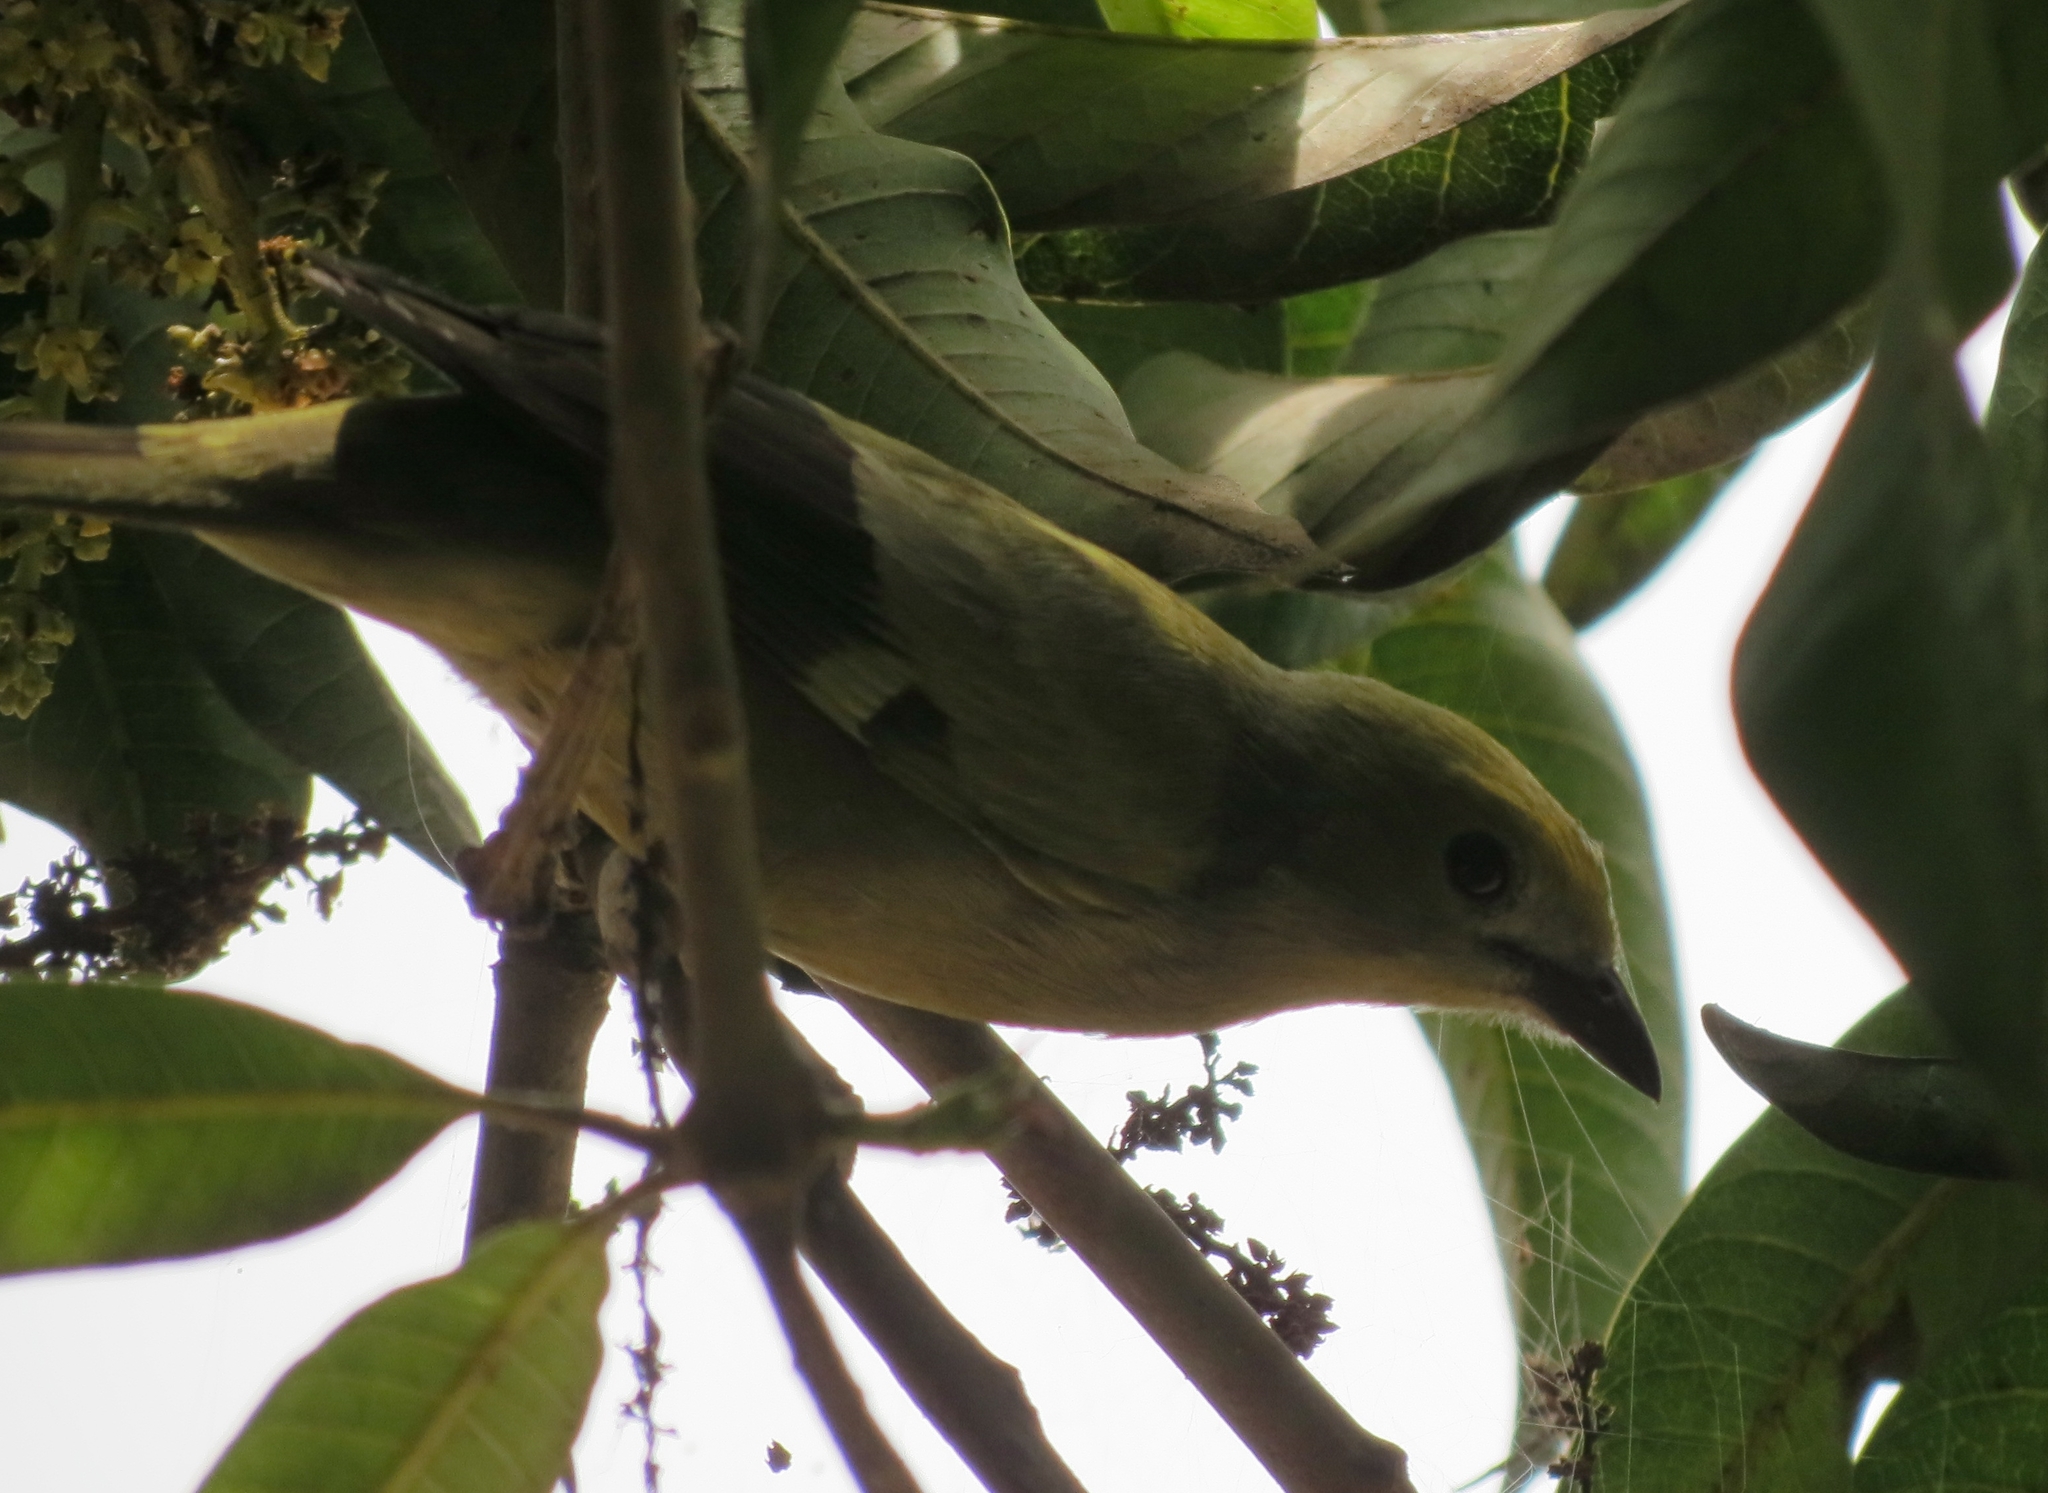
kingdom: Animalia
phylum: Chordata
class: Aves
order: Passeriformes
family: Thraupidae
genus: Thraupis
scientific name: Thraupis palmarum
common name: Palm tanager
